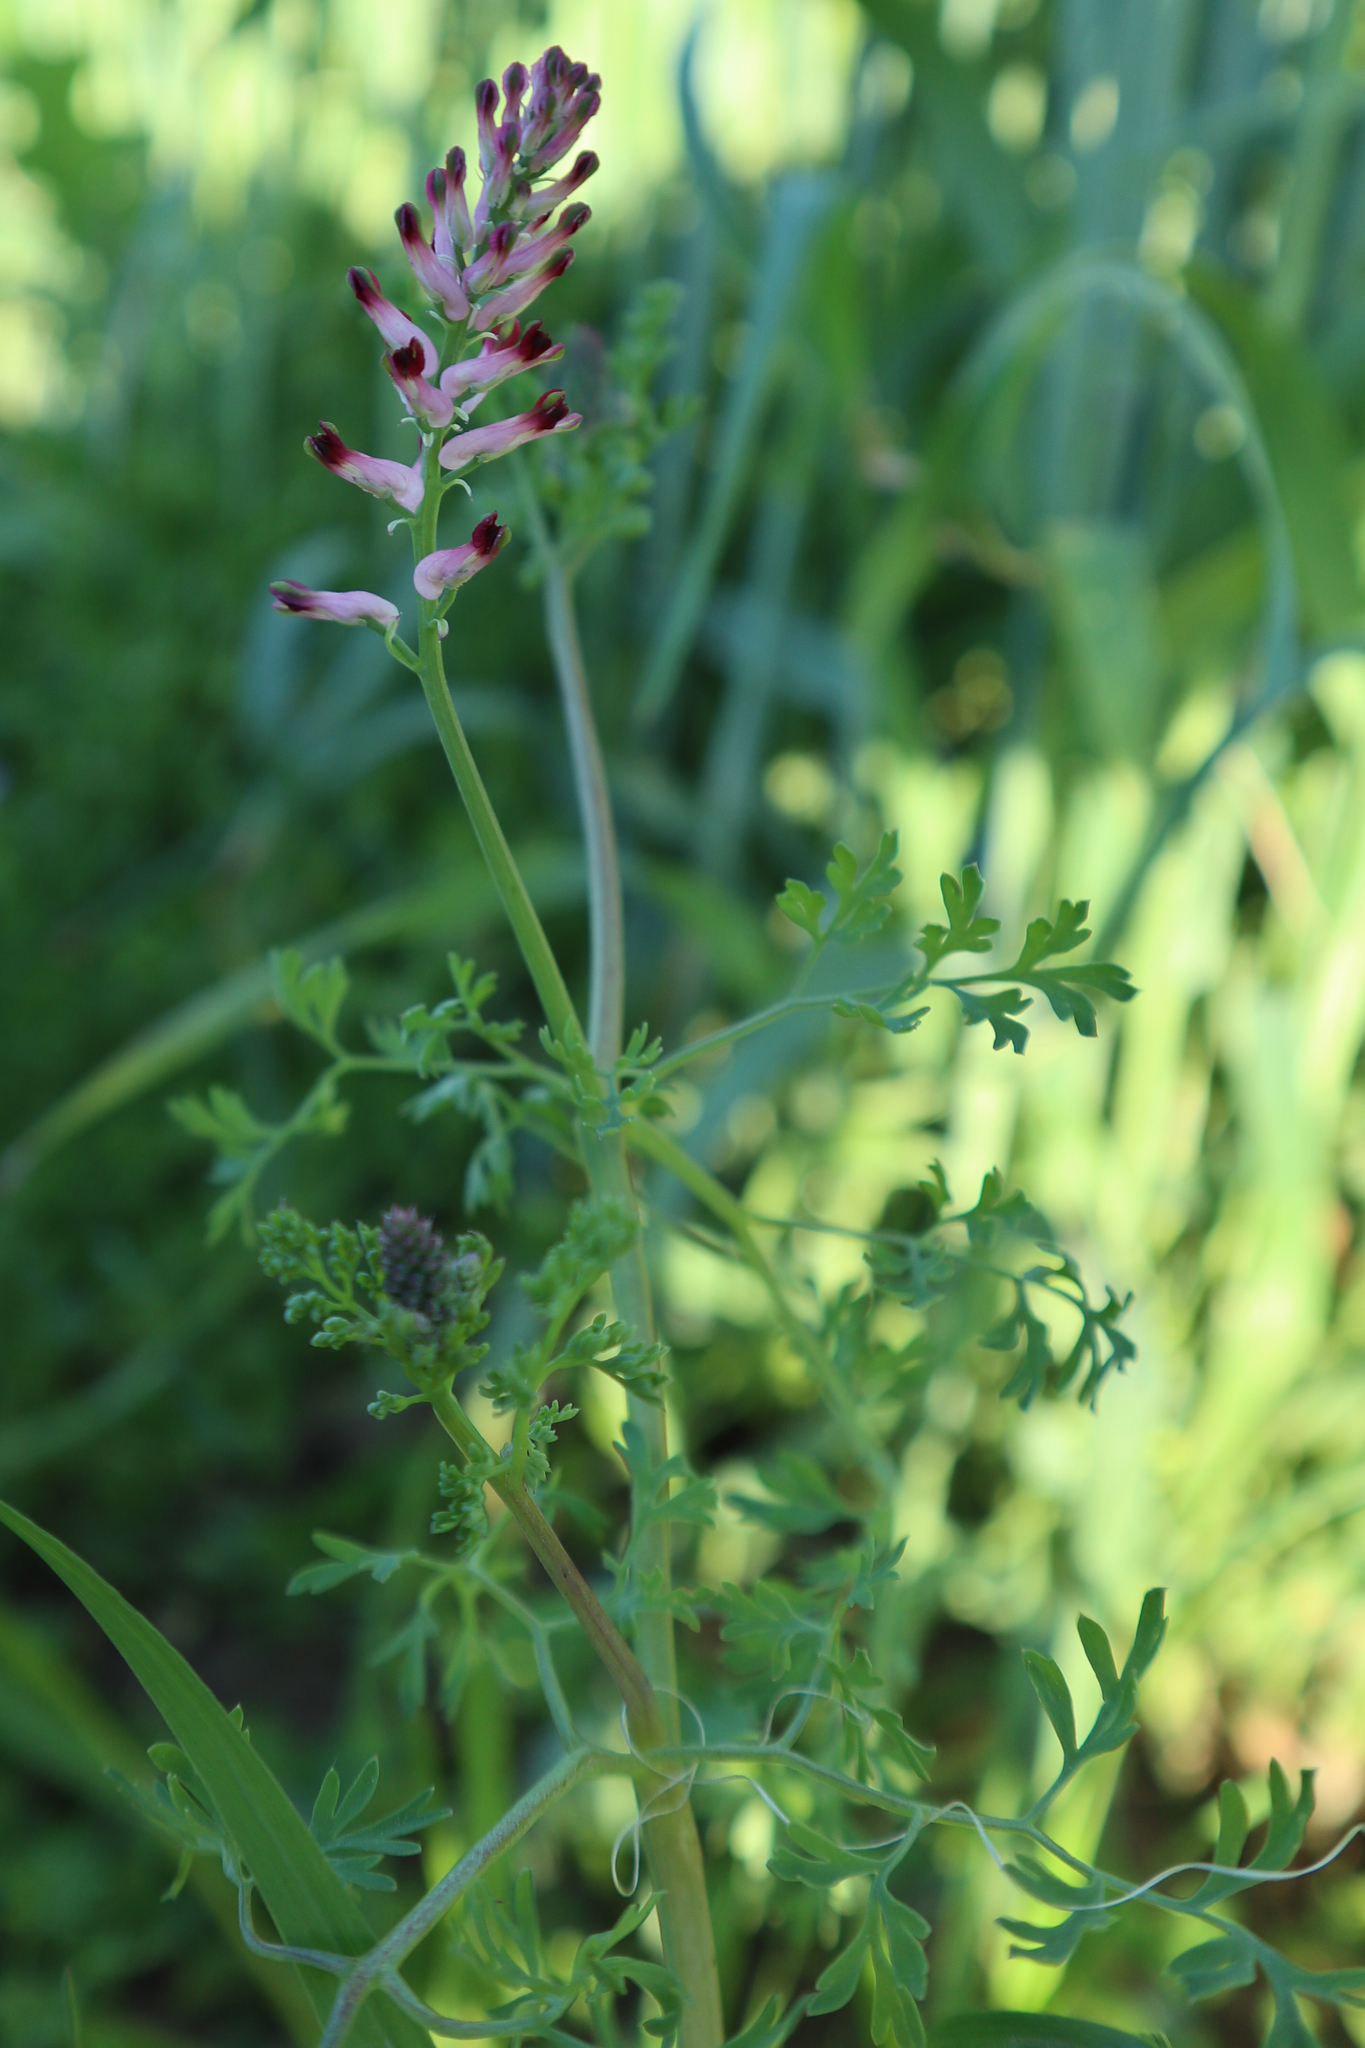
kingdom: Plantae
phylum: Tracheophyta
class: Magnoliopsida
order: Ranunculales
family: Papaveraceae
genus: Fumaria
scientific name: Fumaria officinalis
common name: Common fumitory
